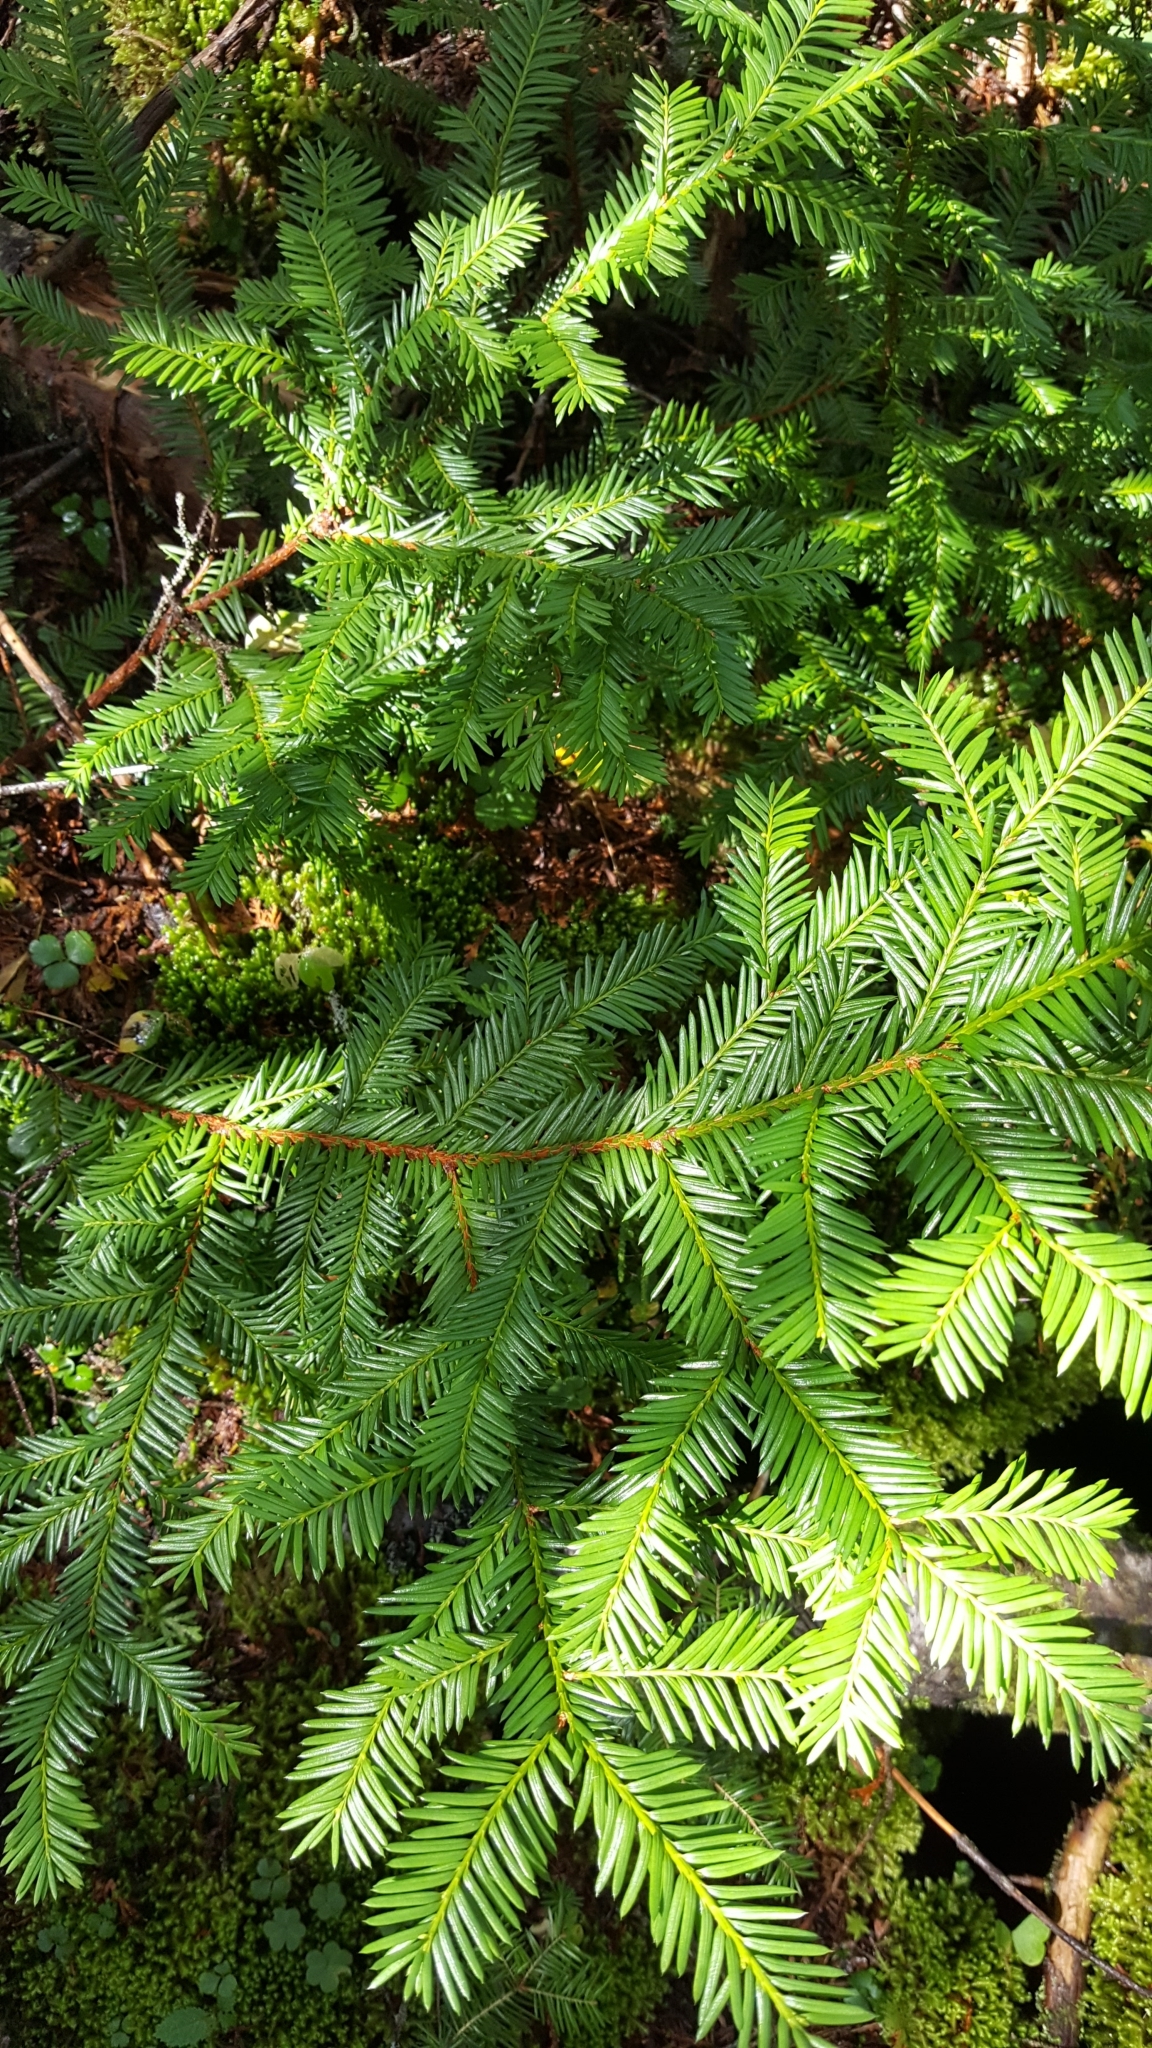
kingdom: Plantae
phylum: Tracheophyta
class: Pinopsida
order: Pinales
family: Taxaceae
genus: Taxus
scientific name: Taxus canadensis
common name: American yew
